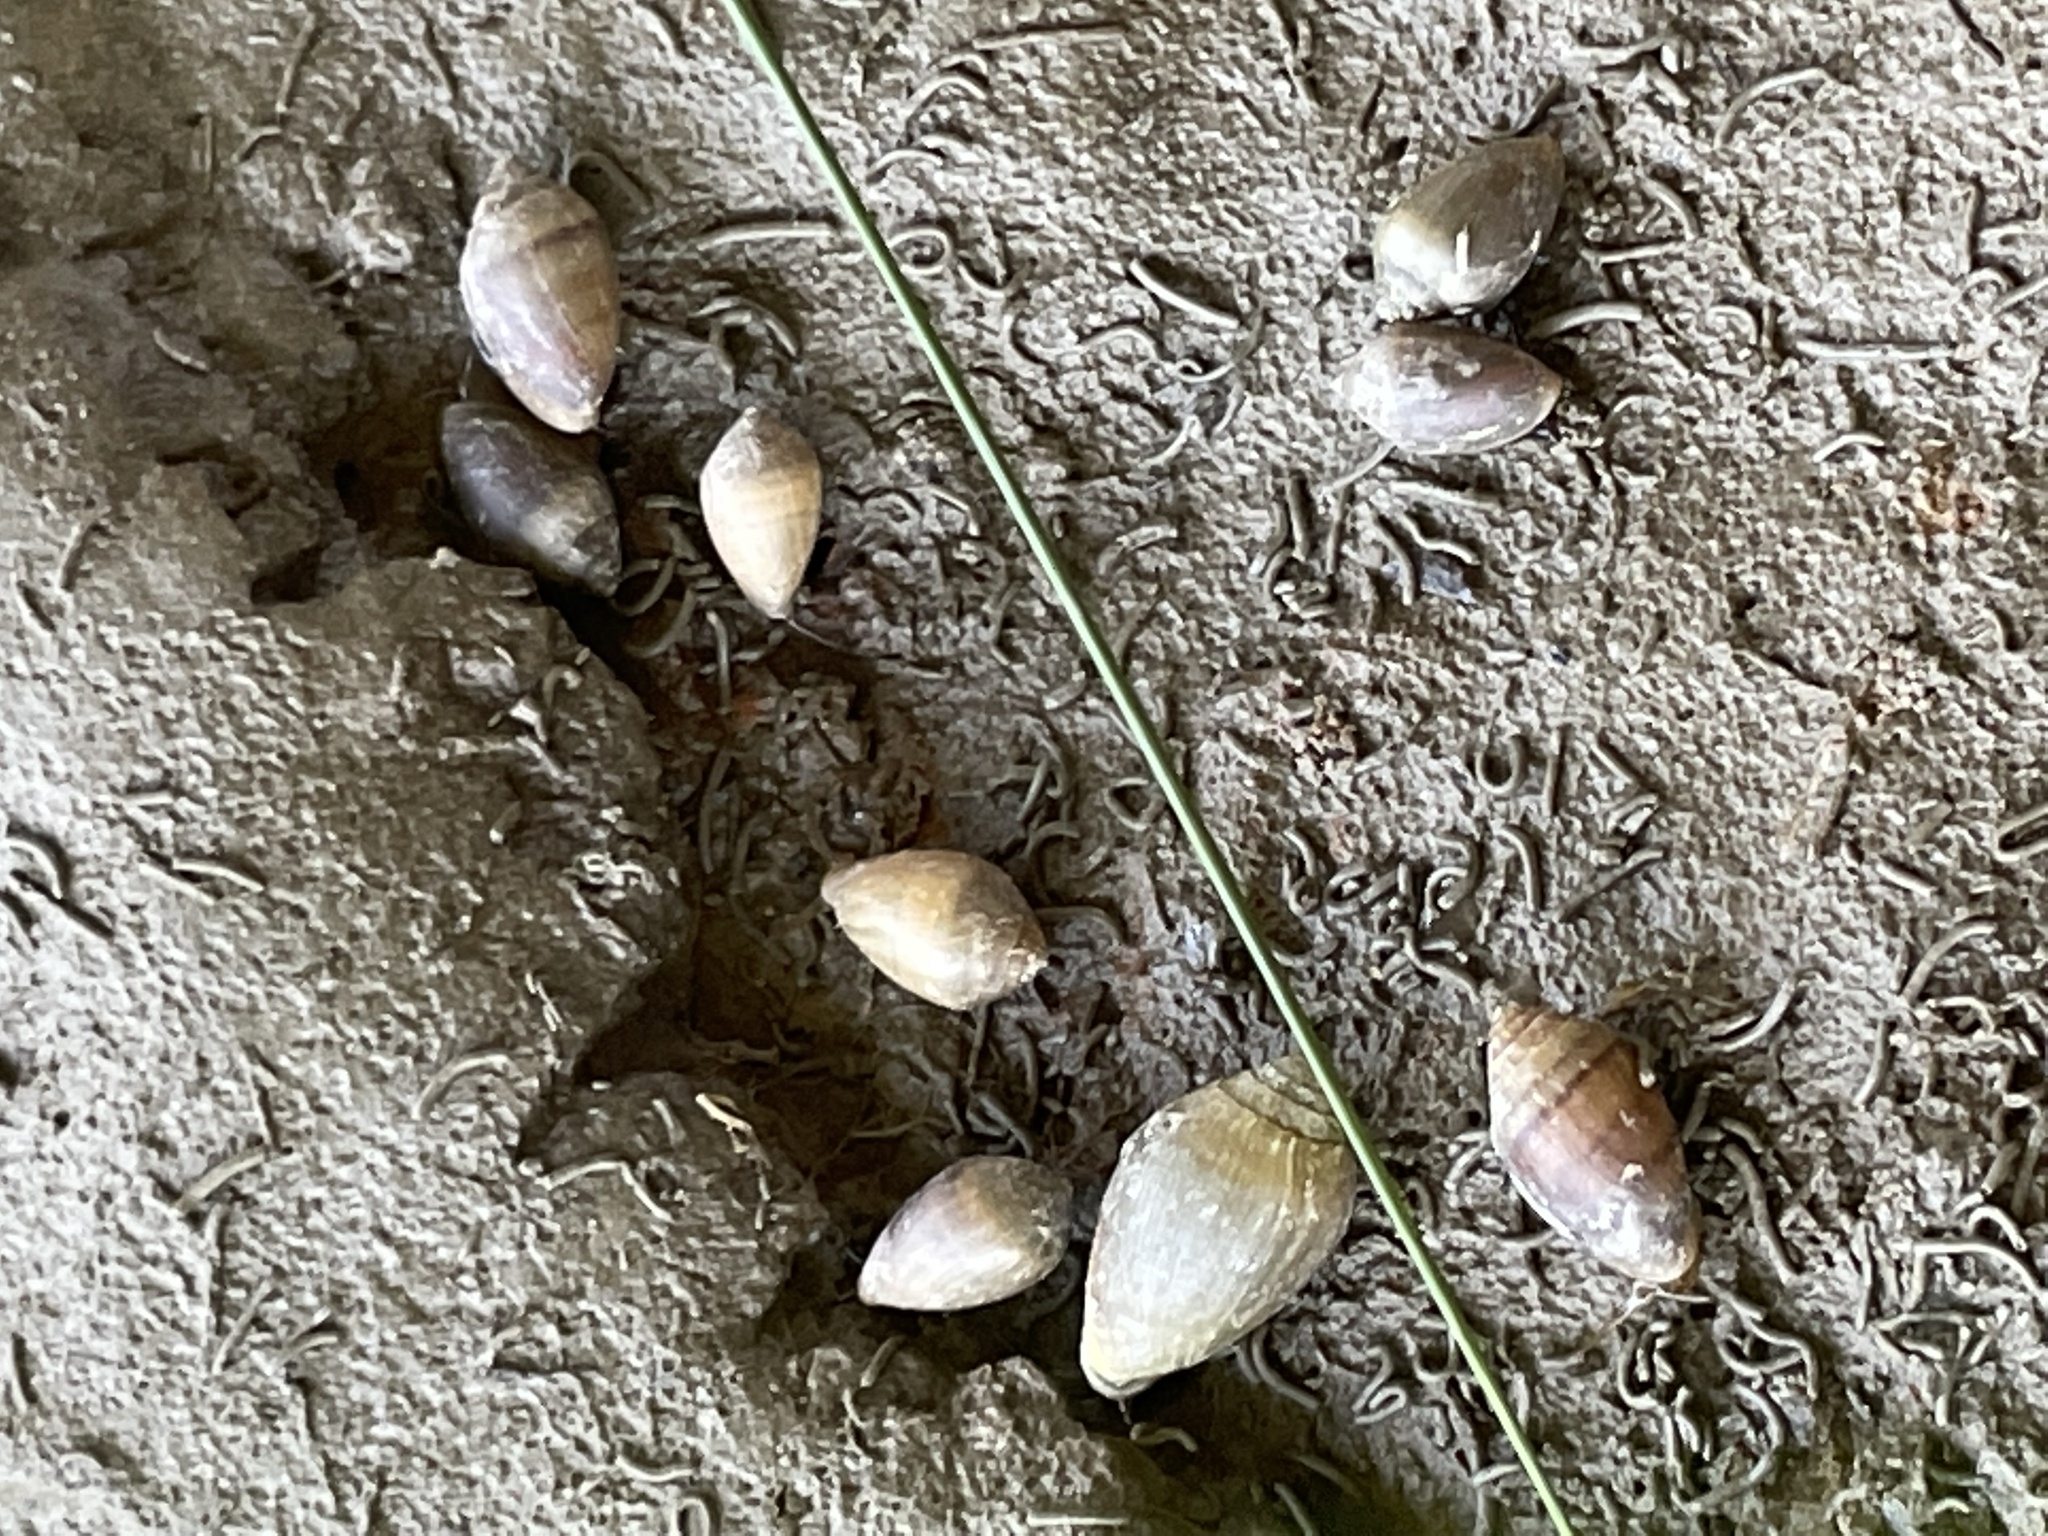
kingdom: Animalia
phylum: Mollusca
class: Gastropoda
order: Ellobiida
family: Ellobiidae
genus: Melampus
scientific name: Melampus bidentatus
